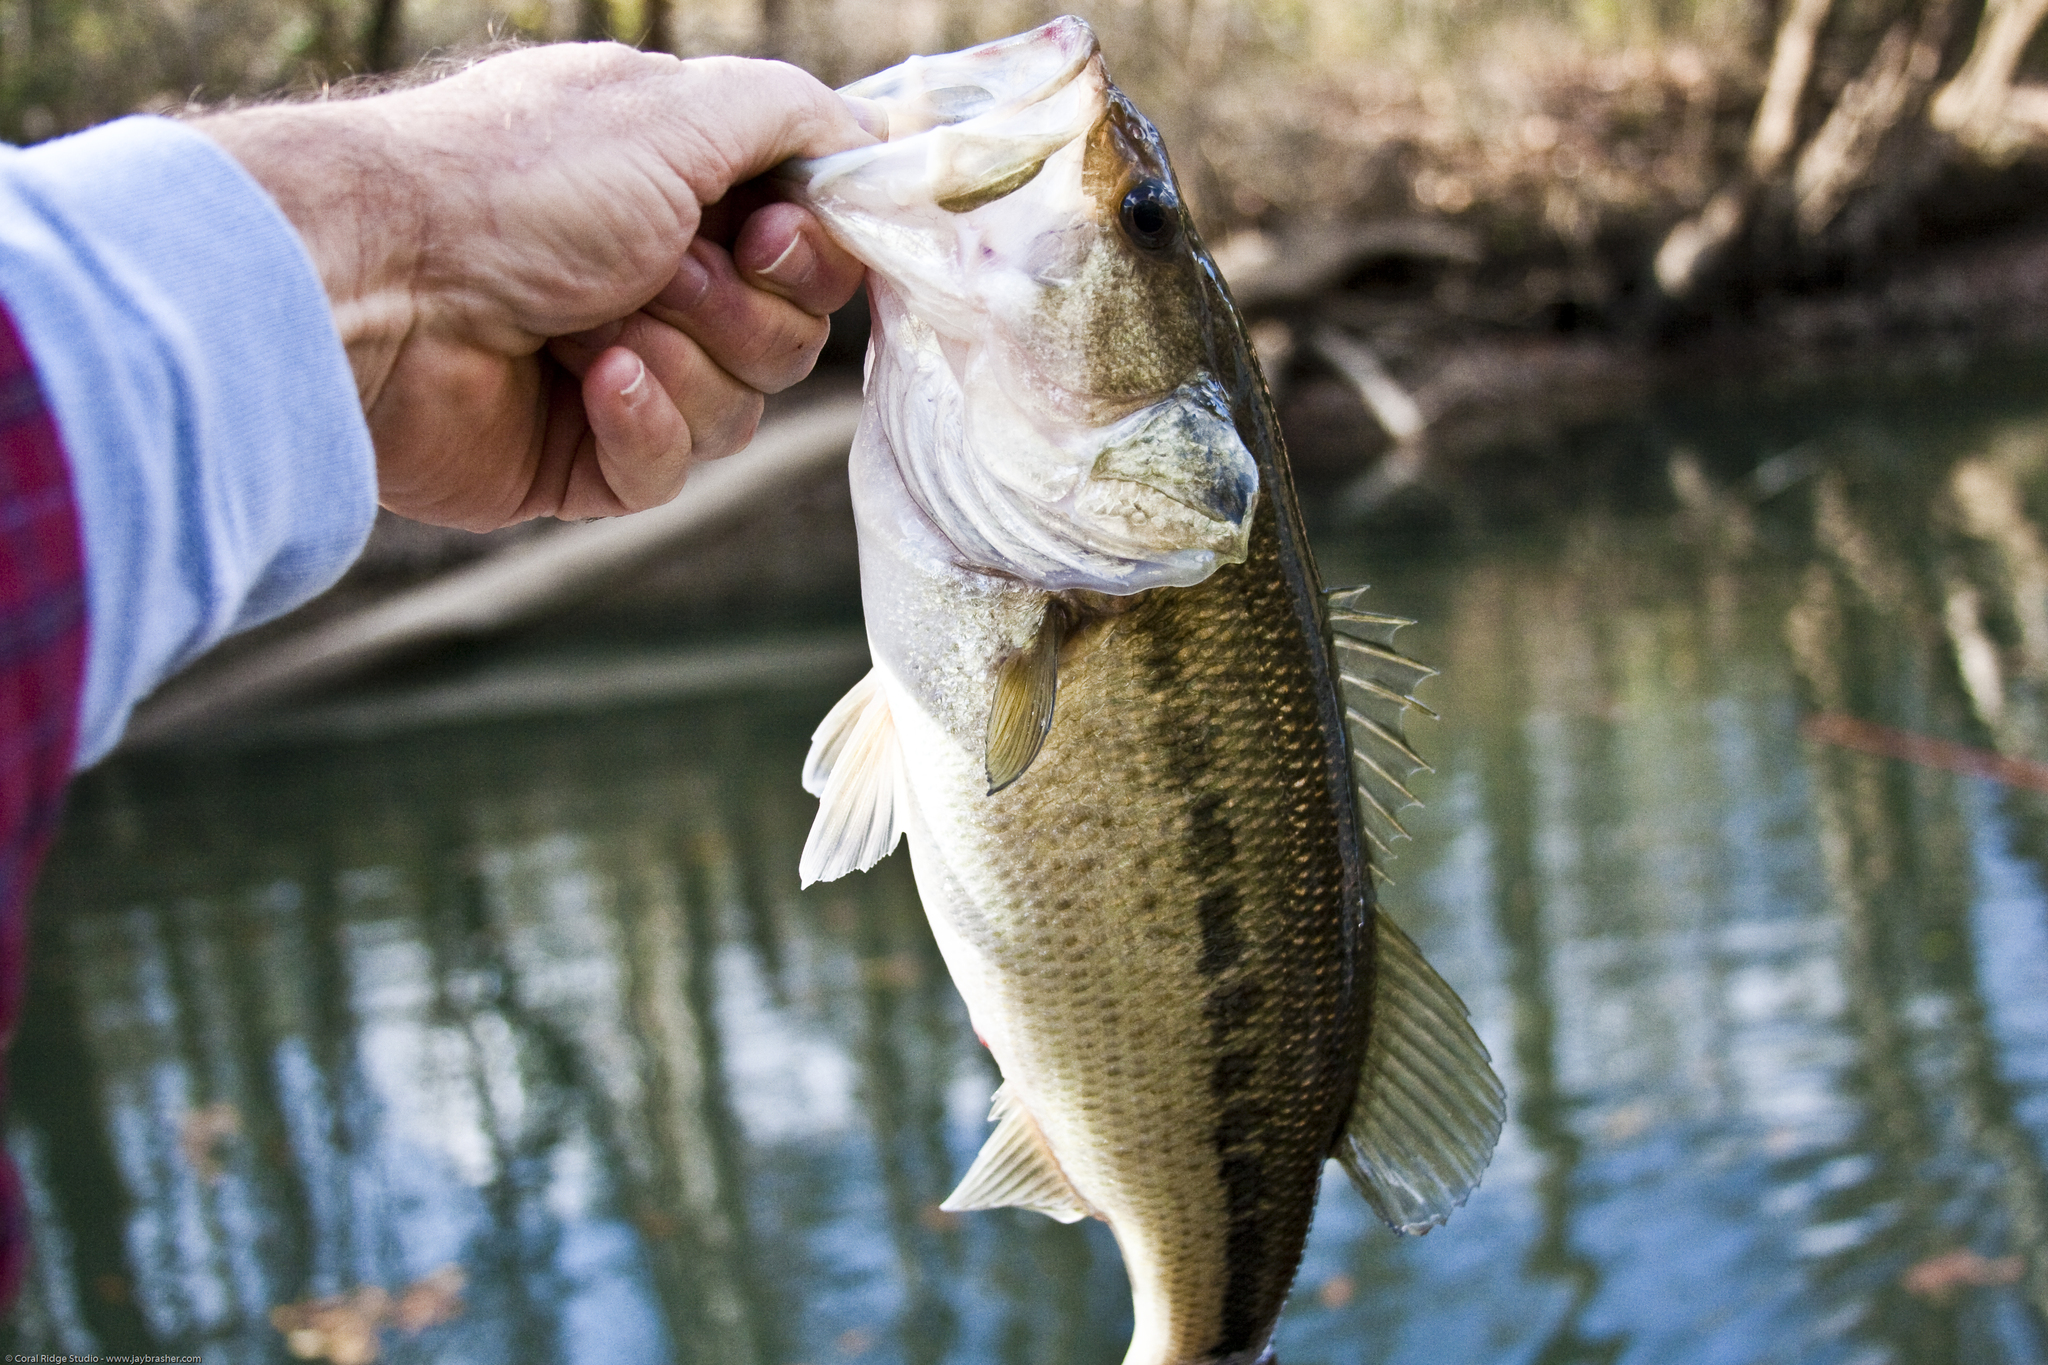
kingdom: Animalia
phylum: Chordata
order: Perciformes
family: Centrarchidae
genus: Micropterus
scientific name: Micropterus
